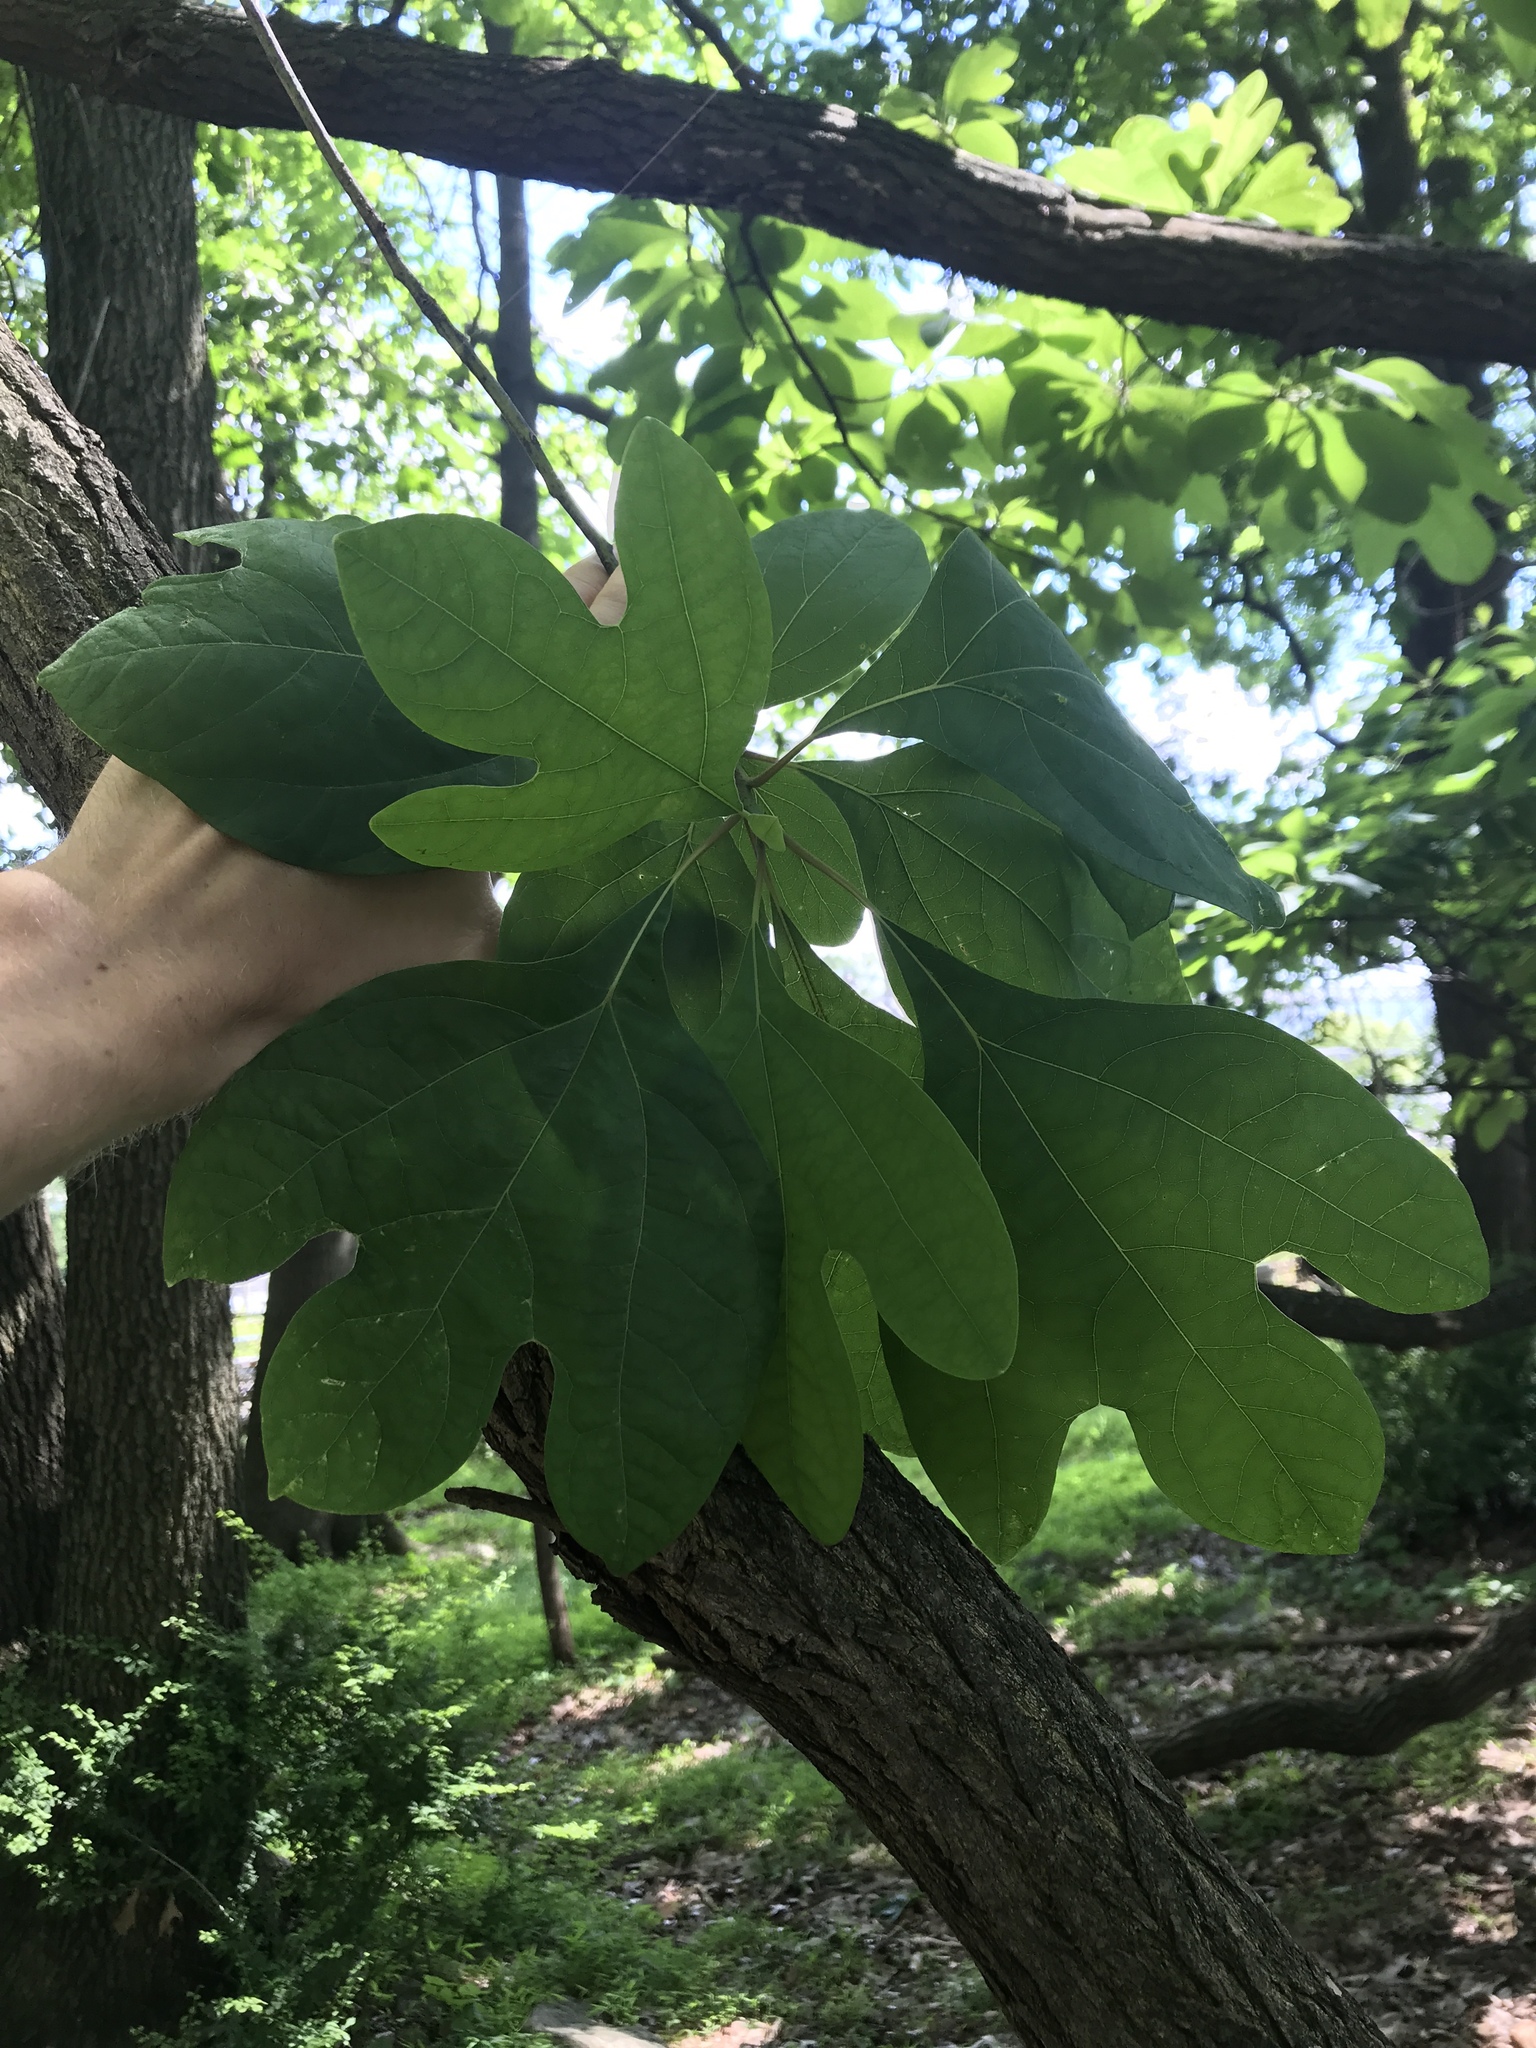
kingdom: Plantae
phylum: Tracheophyta
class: Magnoliopsida
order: Laurales
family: Lauraceae
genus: Sassafras
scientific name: Sassafras albidum
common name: Sassafras
